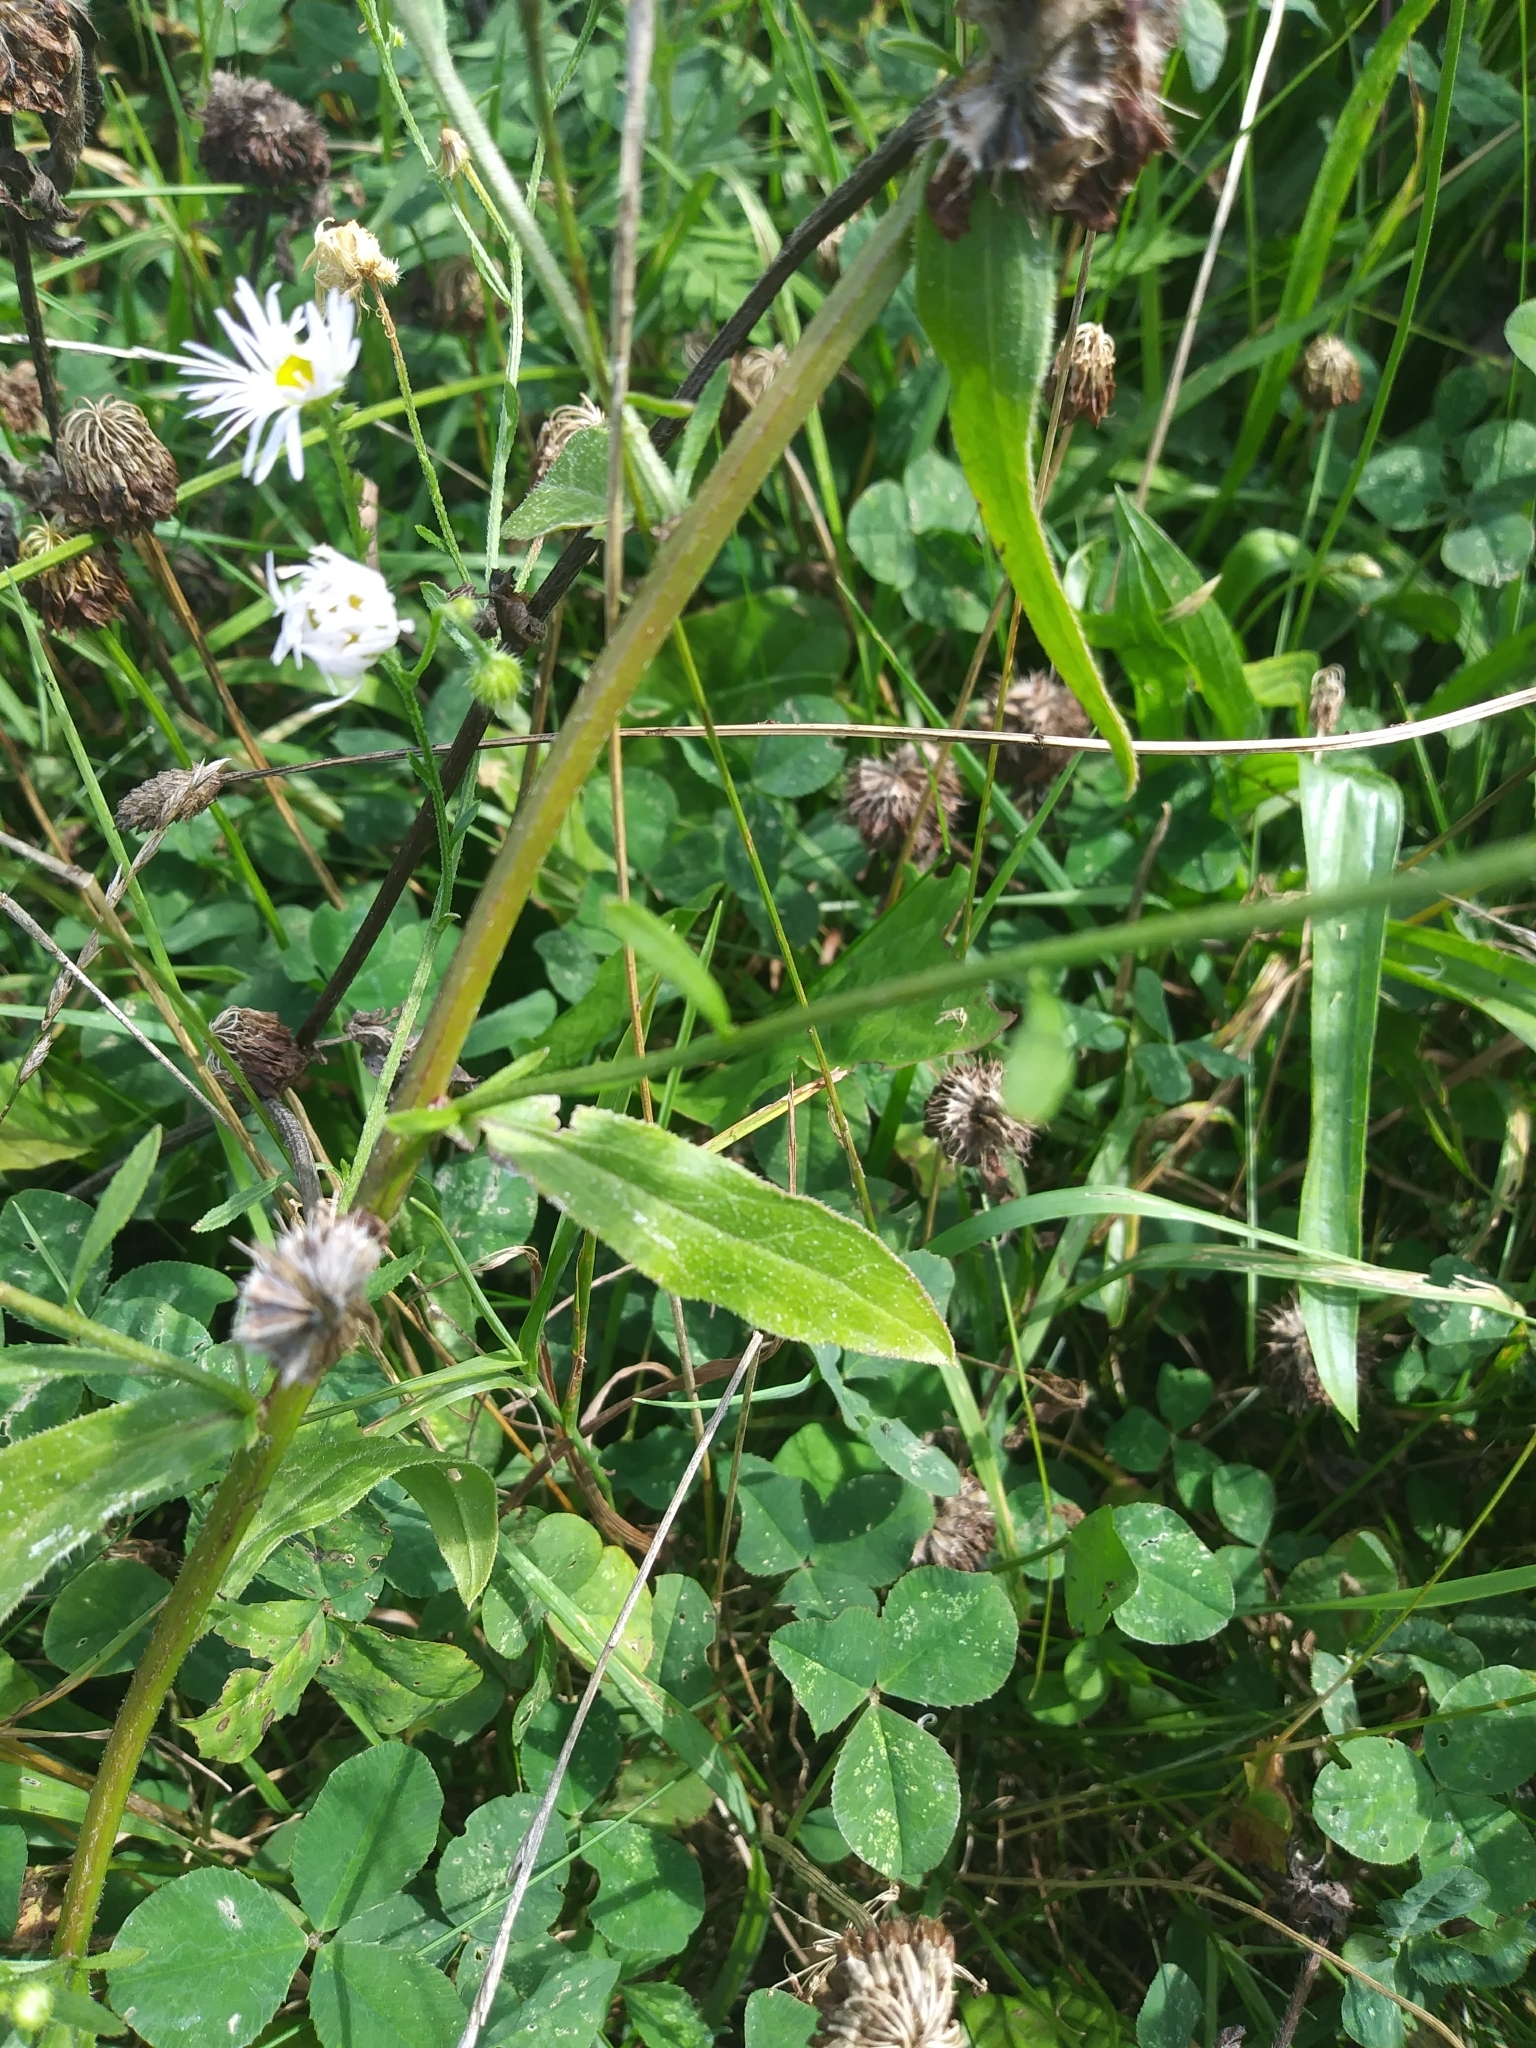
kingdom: Plantae
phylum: Tracheophyta
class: Magnoliopsida
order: Asterales
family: Asteraceae
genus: Erigeron
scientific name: Erigeron strigosus
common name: Common eastern fleabane
